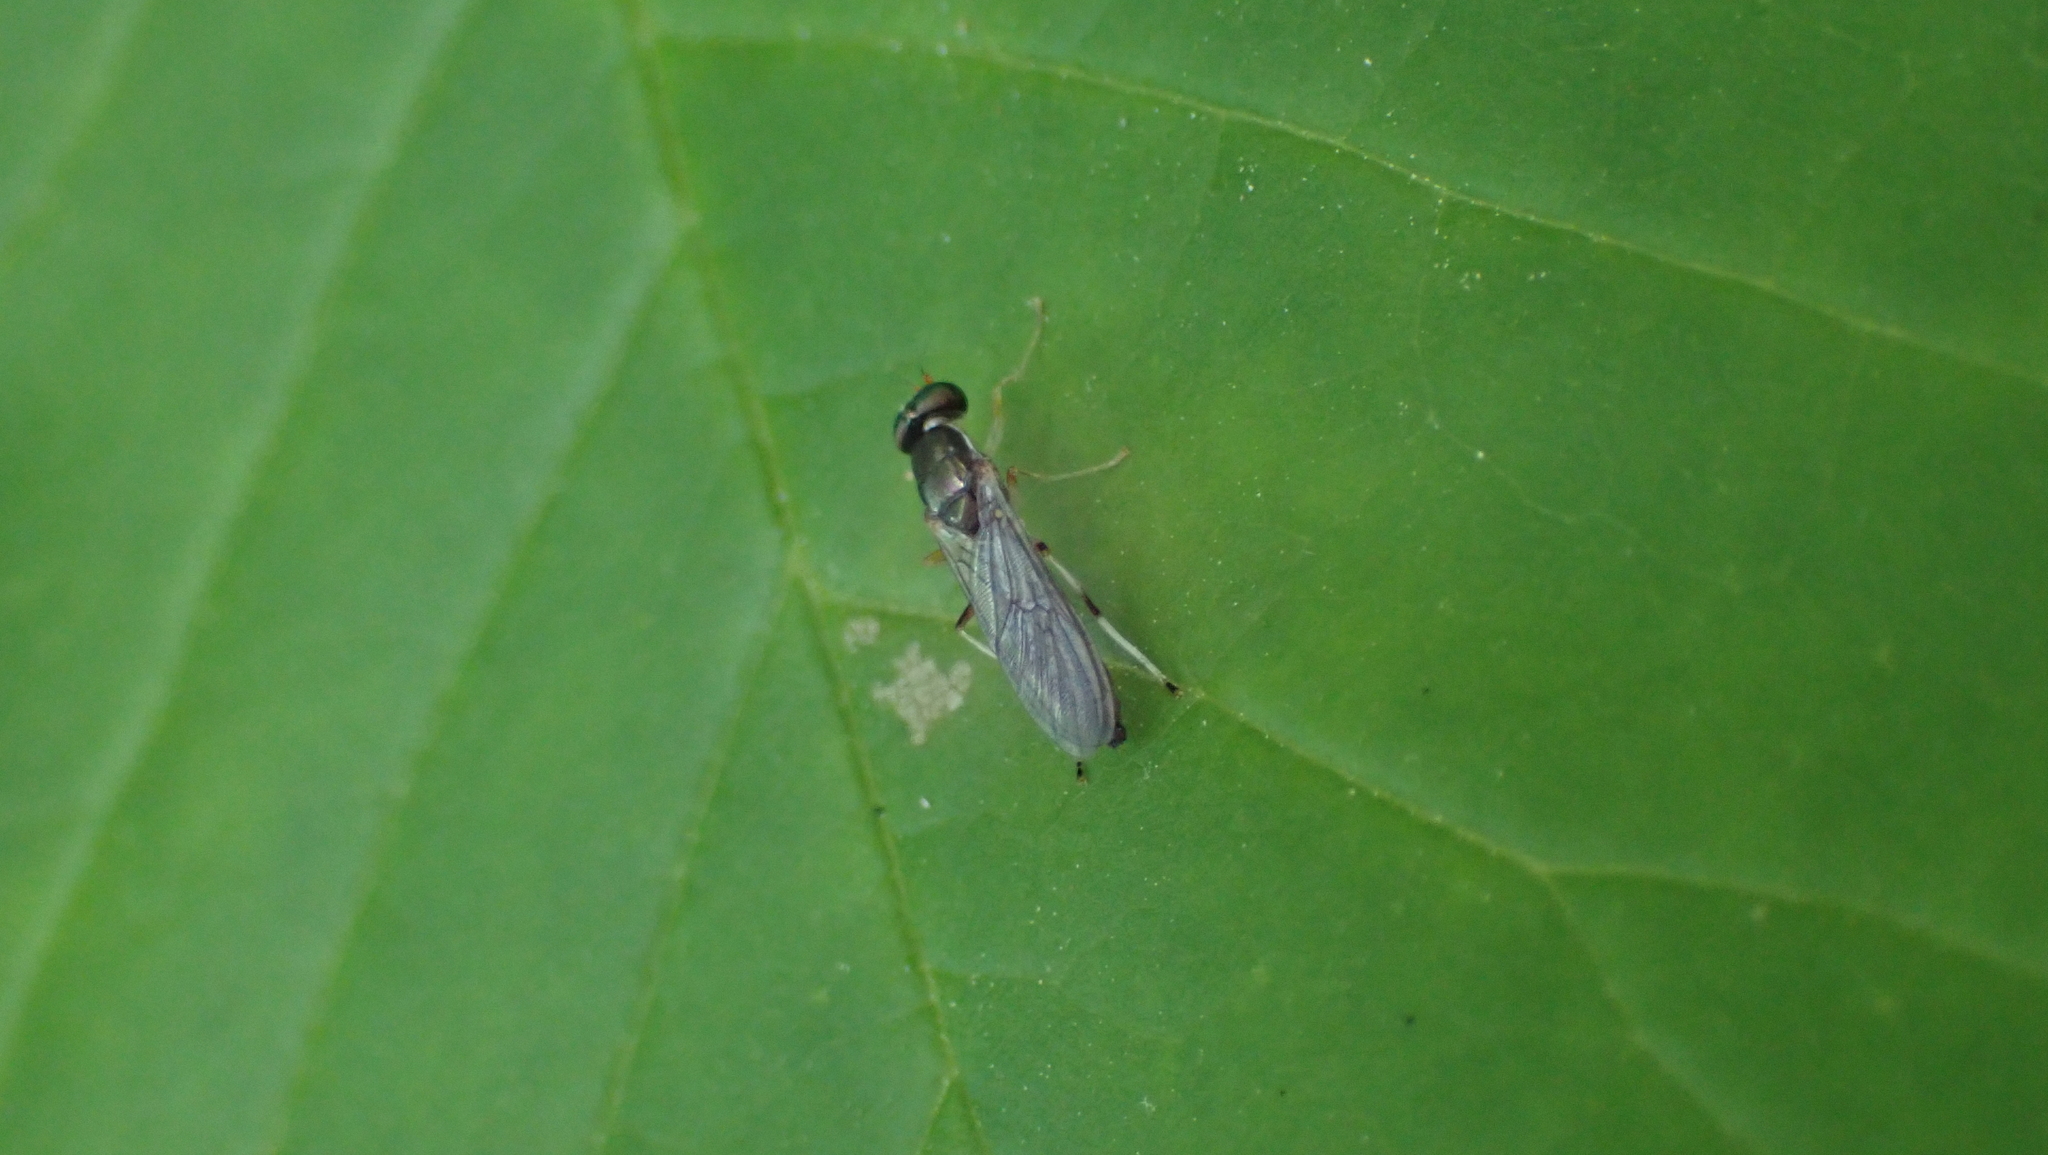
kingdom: Animalia
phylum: Arthropoda
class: Insecta
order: Diptera
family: Stratiomyidae
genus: Merosargus
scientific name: Merosargus caeruleifrons
